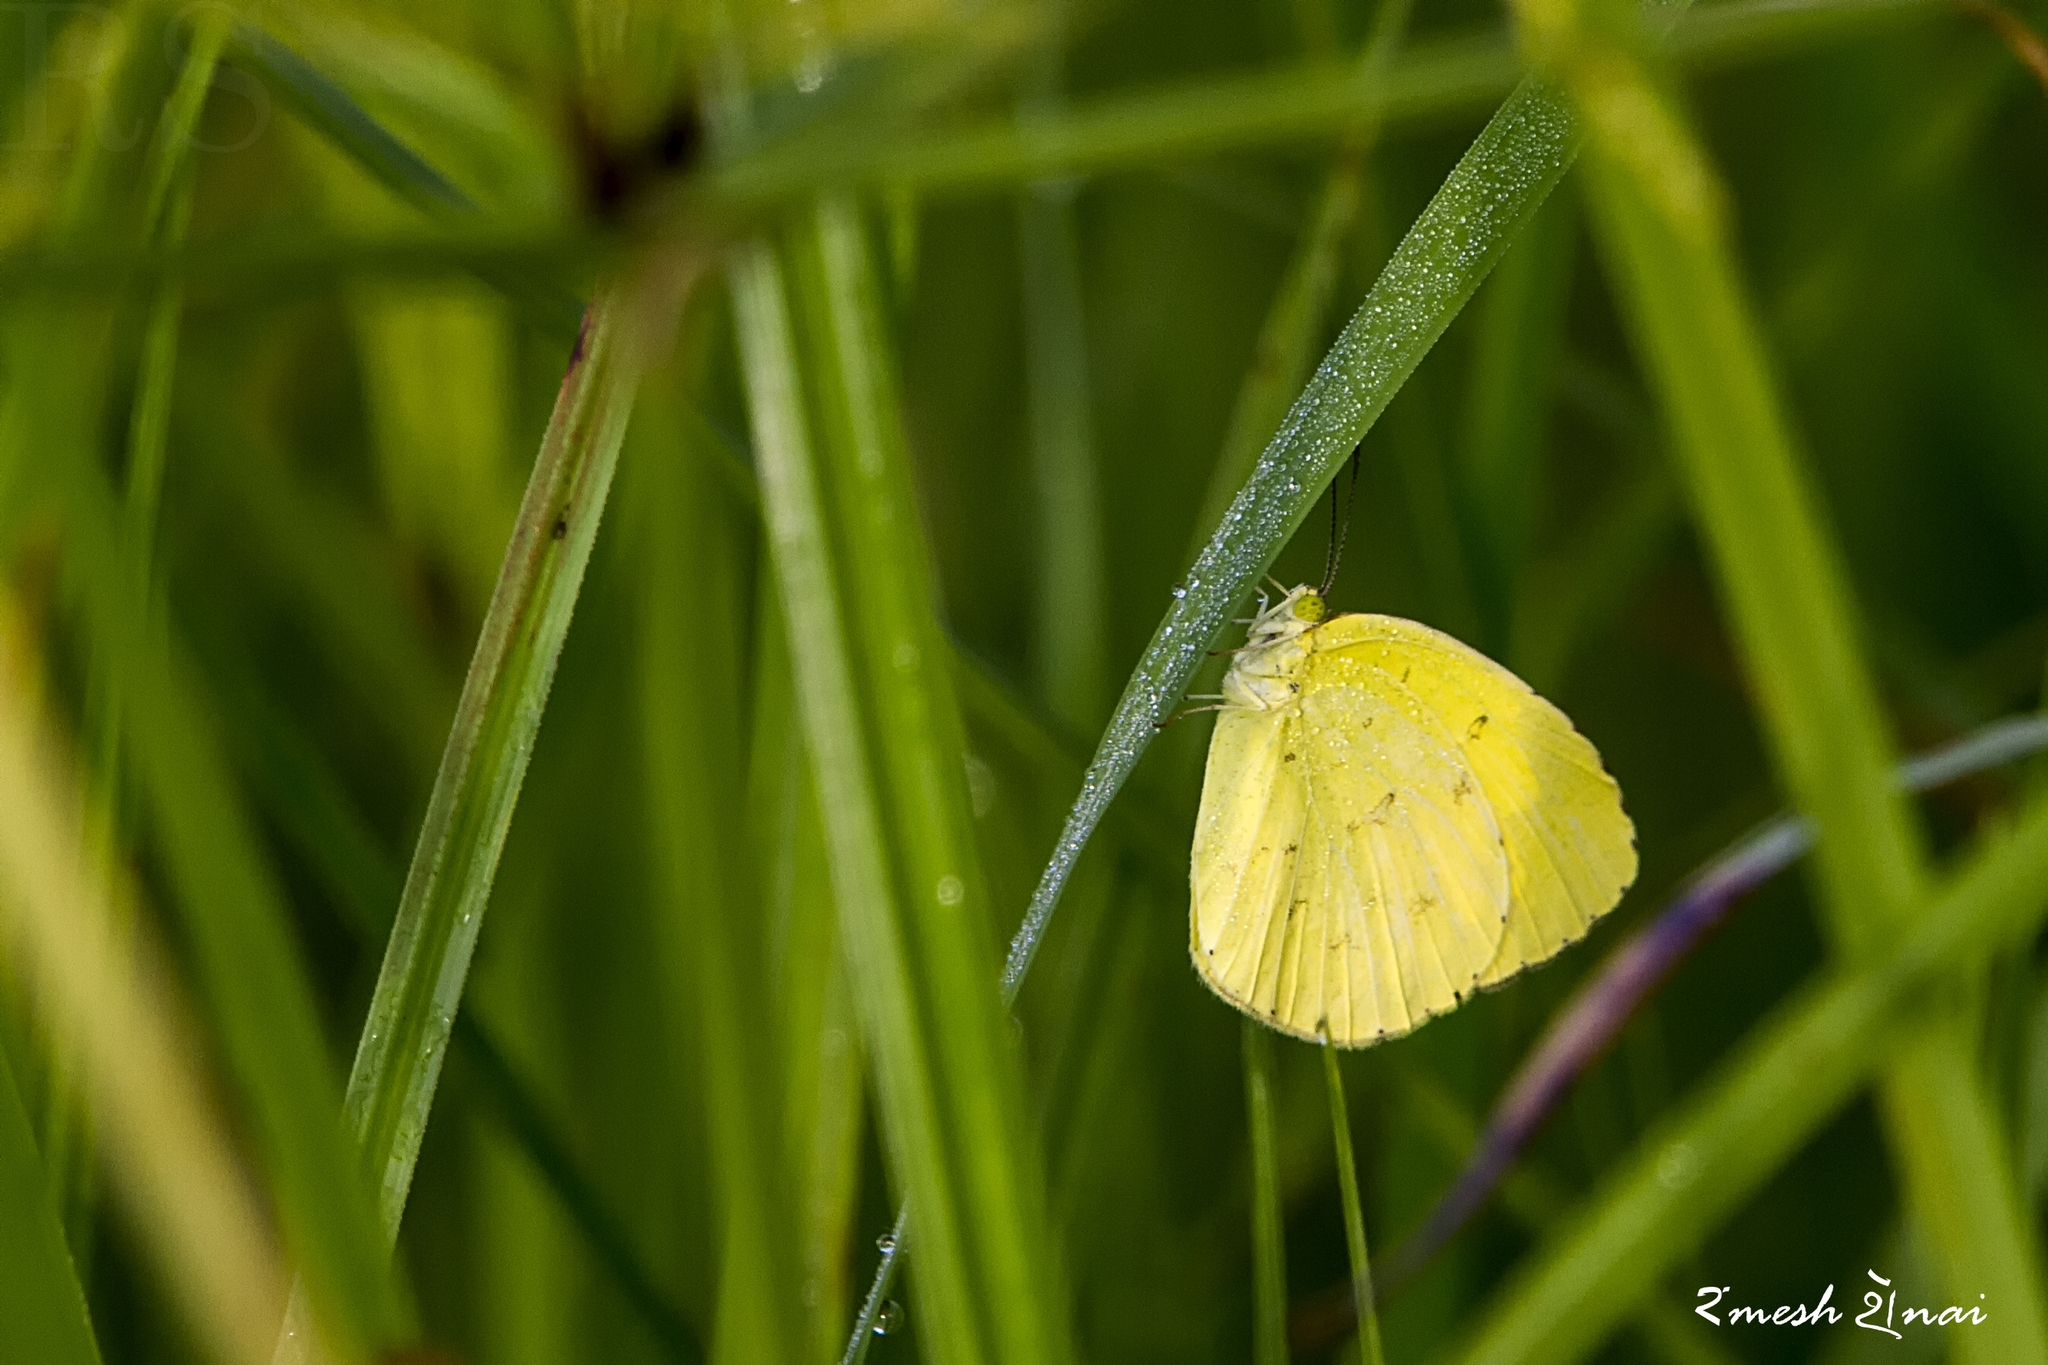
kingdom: Animalia
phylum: Arthropoda
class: Insecta
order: Lepidoptera
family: Pieridae
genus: Eurema
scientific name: Eurema hecabe
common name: Pale grass yellow
